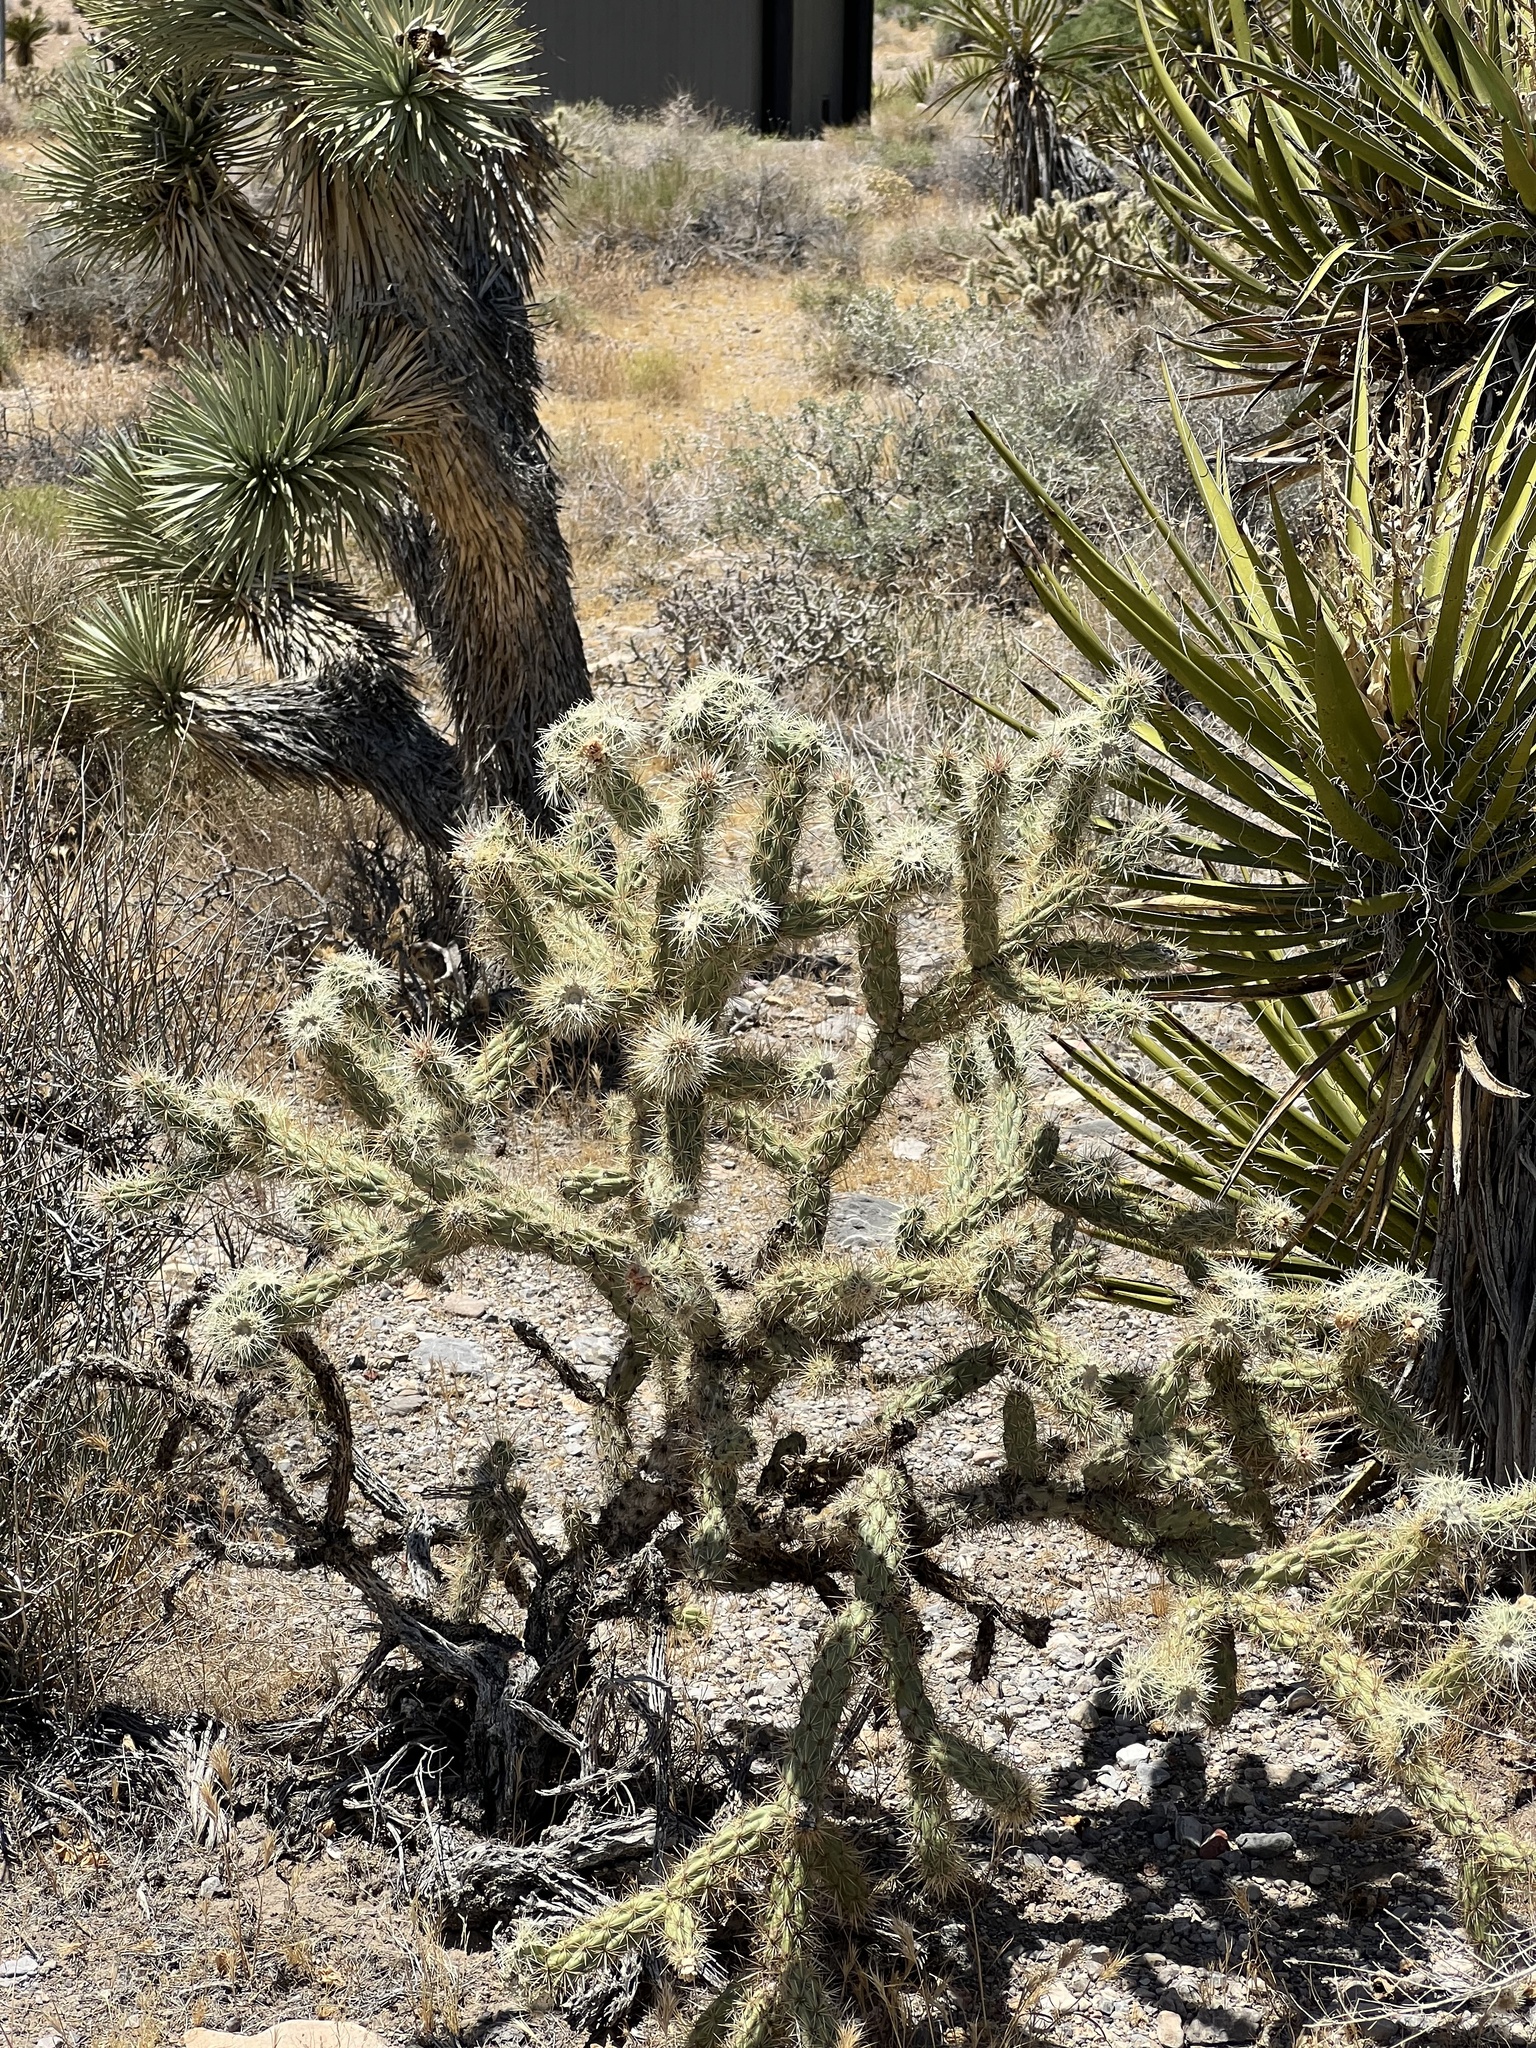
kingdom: Plantae
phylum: Tracheophyta
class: Magnoliopsida
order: Caryophyllales
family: Cactaceae
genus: Cylindropuntia
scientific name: Cylindropuntia acanthocarpa
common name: Buckhorn cholla
